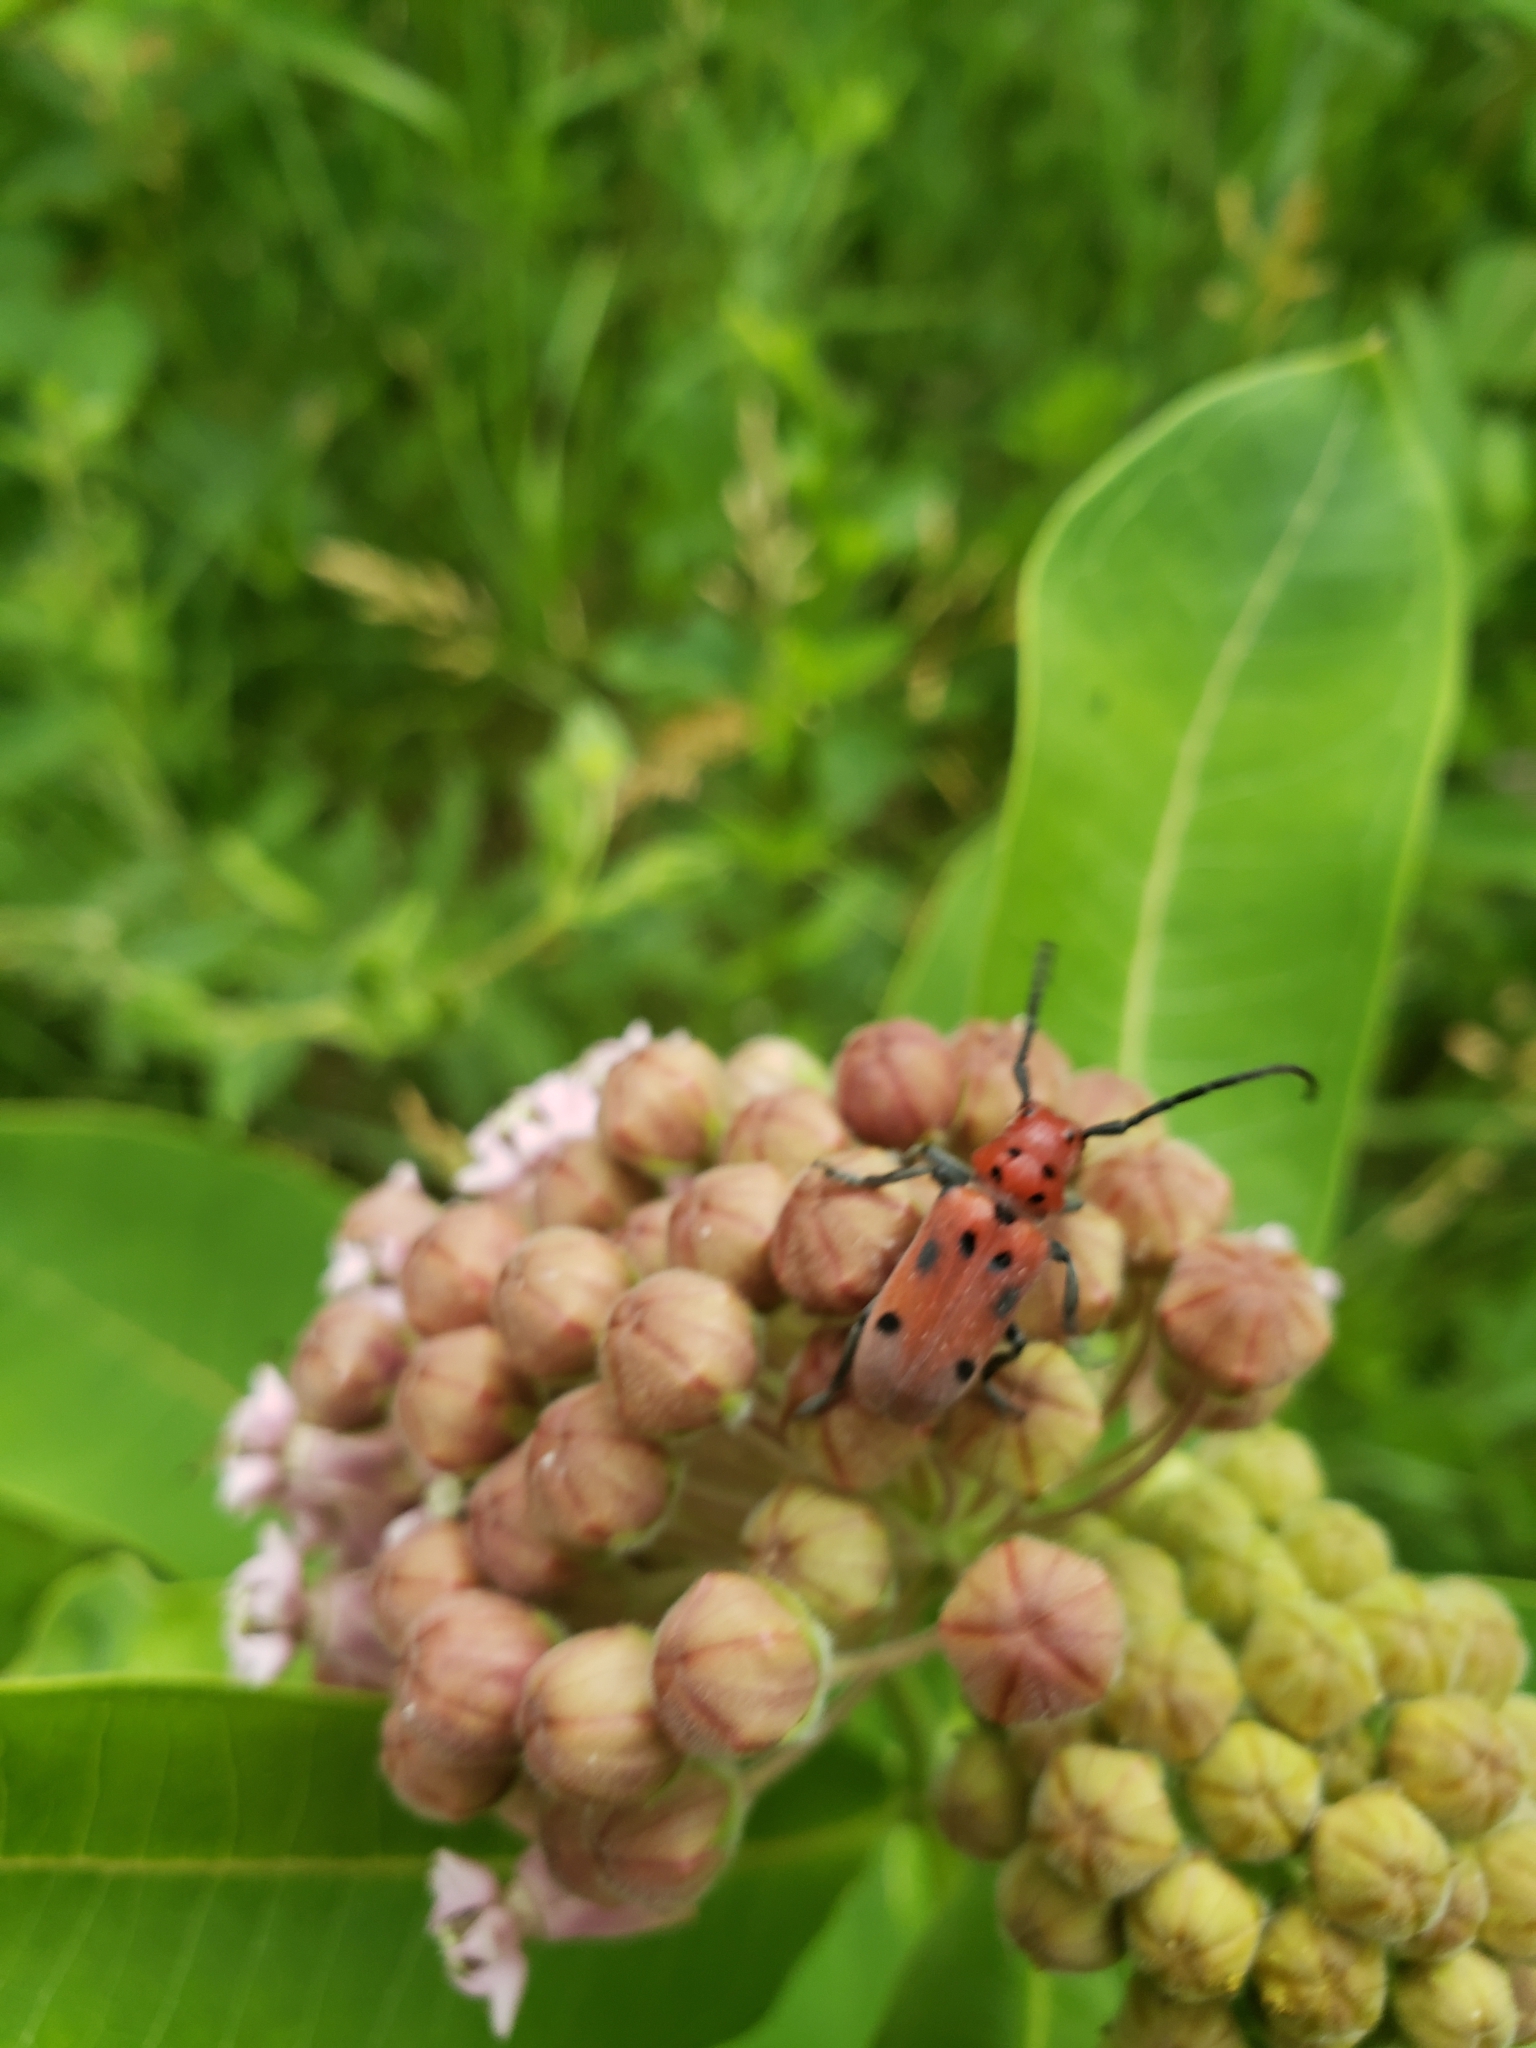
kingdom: Animalia
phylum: Arthropoda
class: Insecta
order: Coleoptera
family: Cerambycidae
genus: Tetraopes
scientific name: Tetraopes tetrophthalmus
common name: Red milkweed beetle
